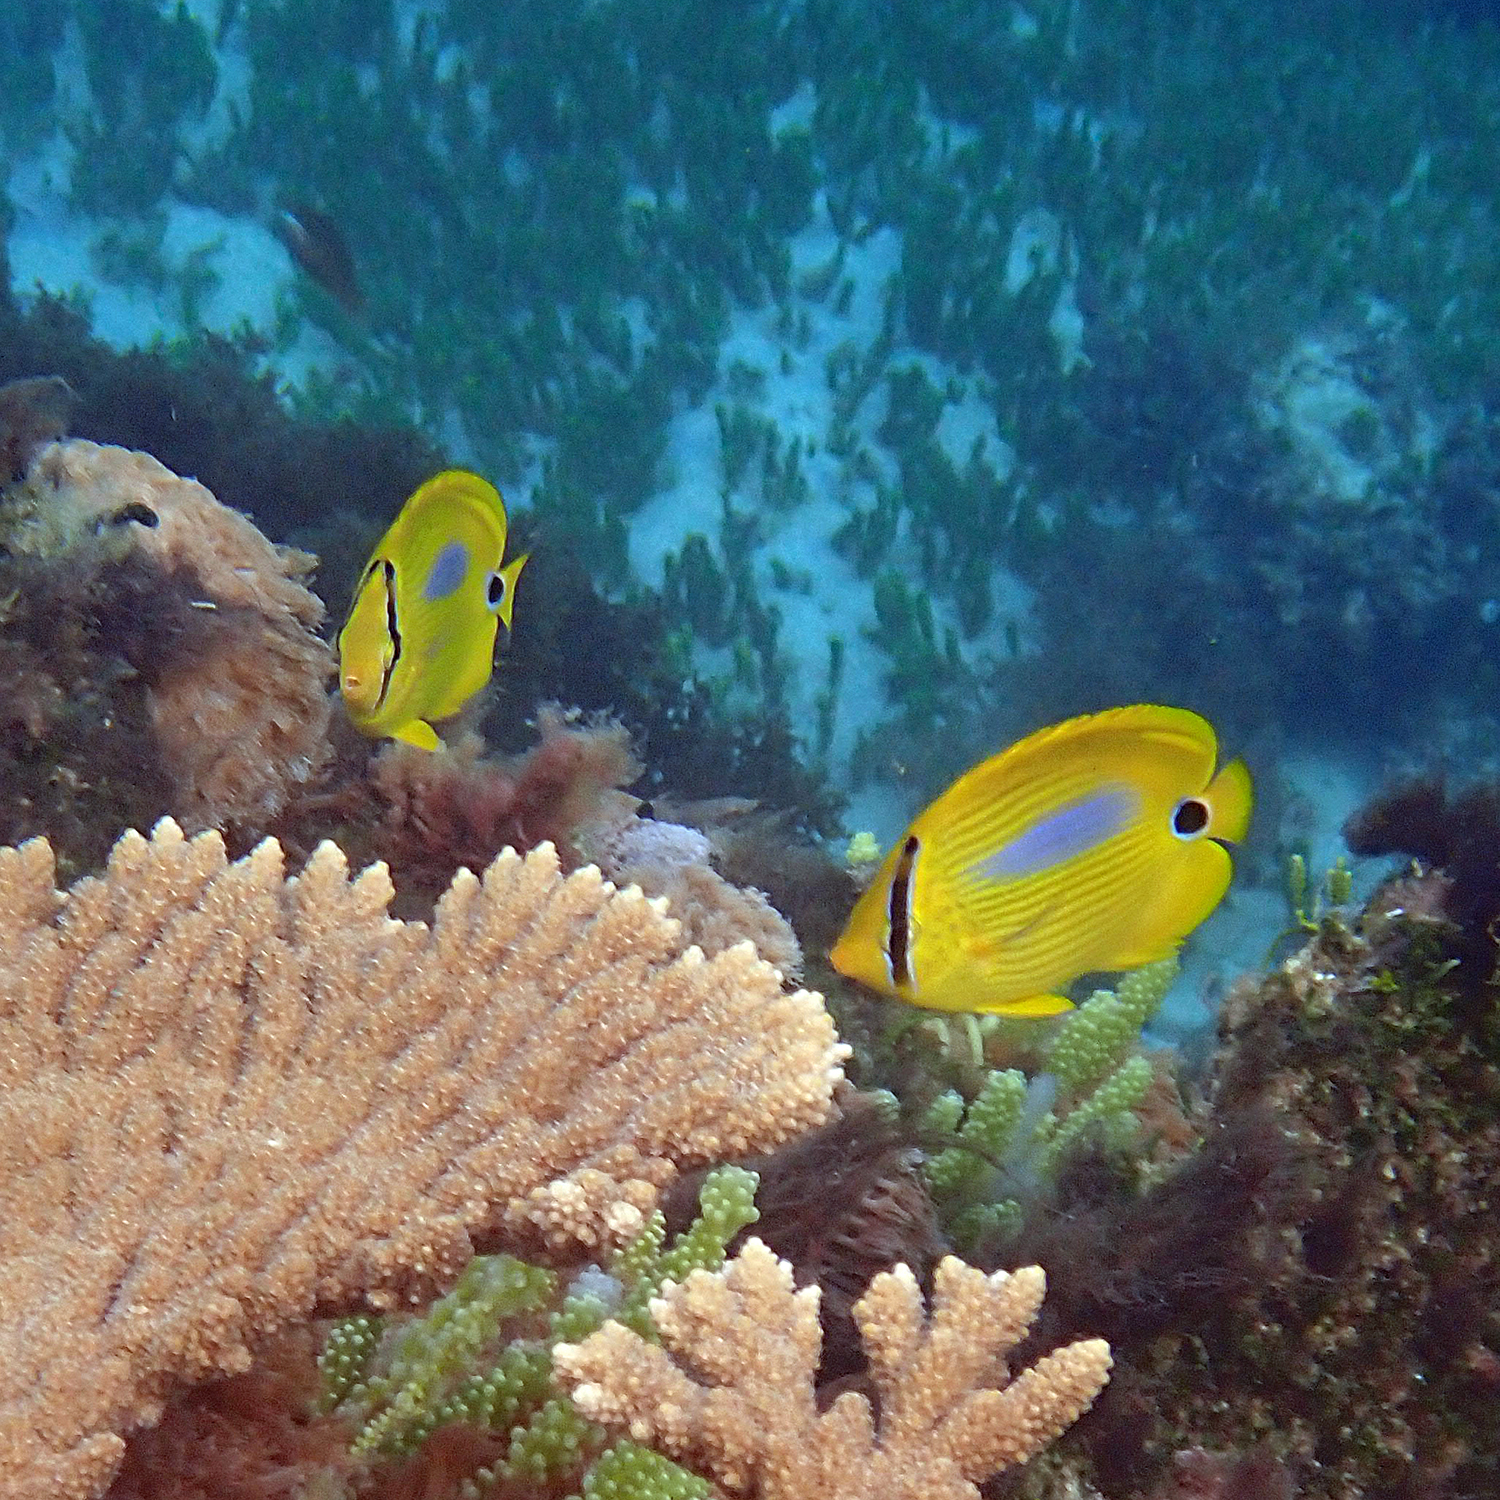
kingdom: Animalia
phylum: Chordata
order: Perciformes
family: Chaetodontidae
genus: Chaetodon
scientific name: Chaetodon plebeius
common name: Bluespot butterflyfish
